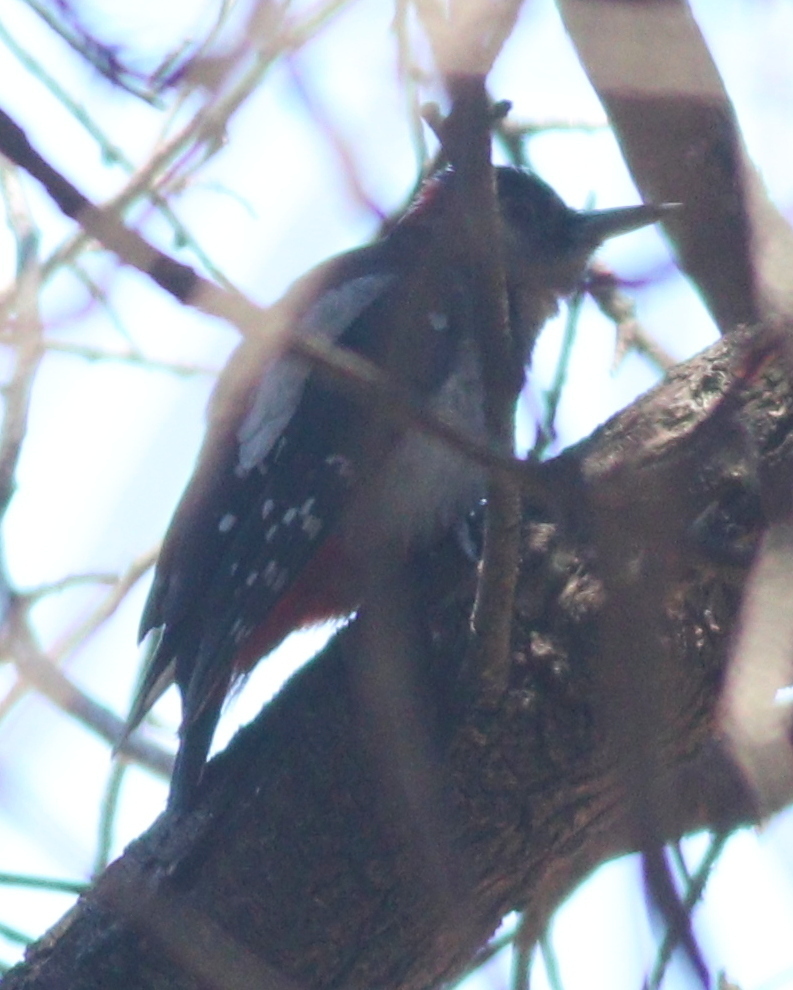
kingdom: Animalia
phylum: Chordata
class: Aves
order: Piciformes
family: Picidae
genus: Dendrocopos
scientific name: Dendrocopos major
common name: Great spotted woodpecker
